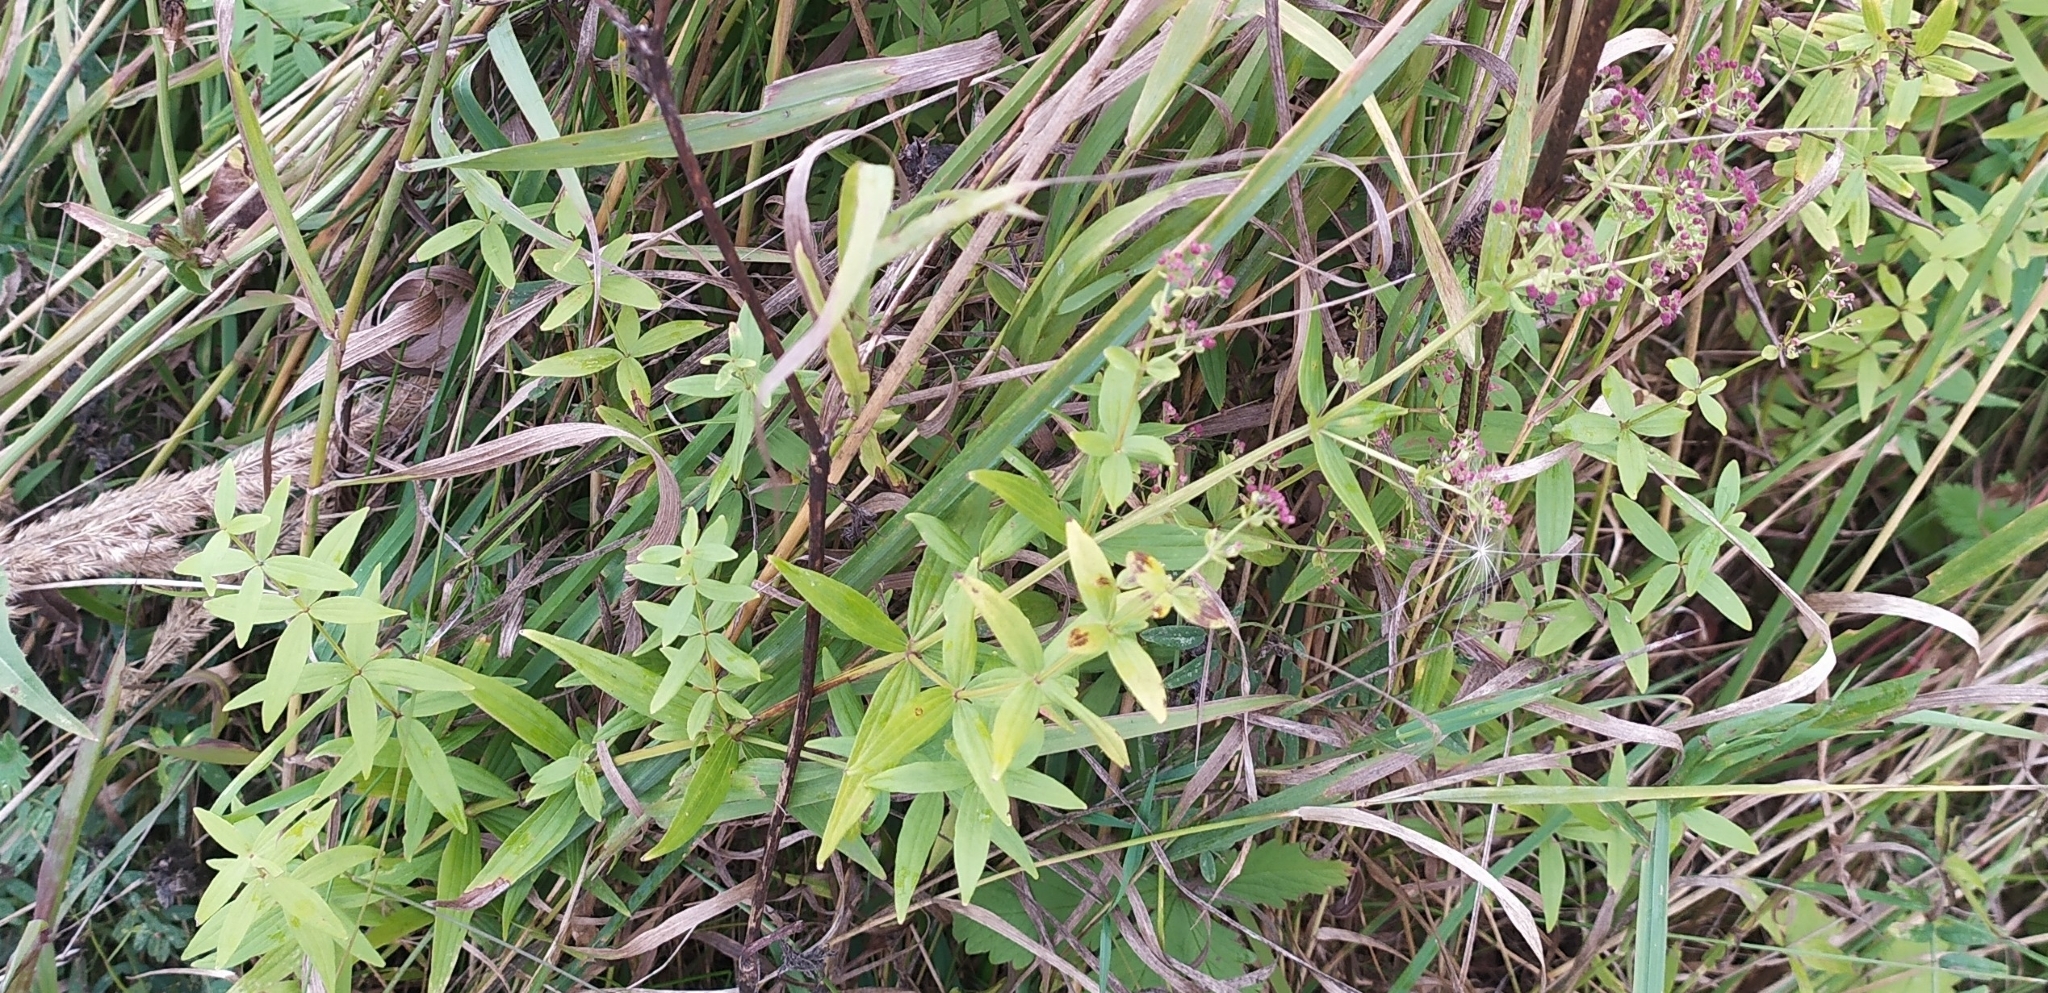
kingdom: Plantae
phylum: Tracheophyta
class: Magnoliopsida
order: Gentianales
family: Rubiaceae
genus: Galium
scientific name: Galium boreale
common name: Northern bedstraw
